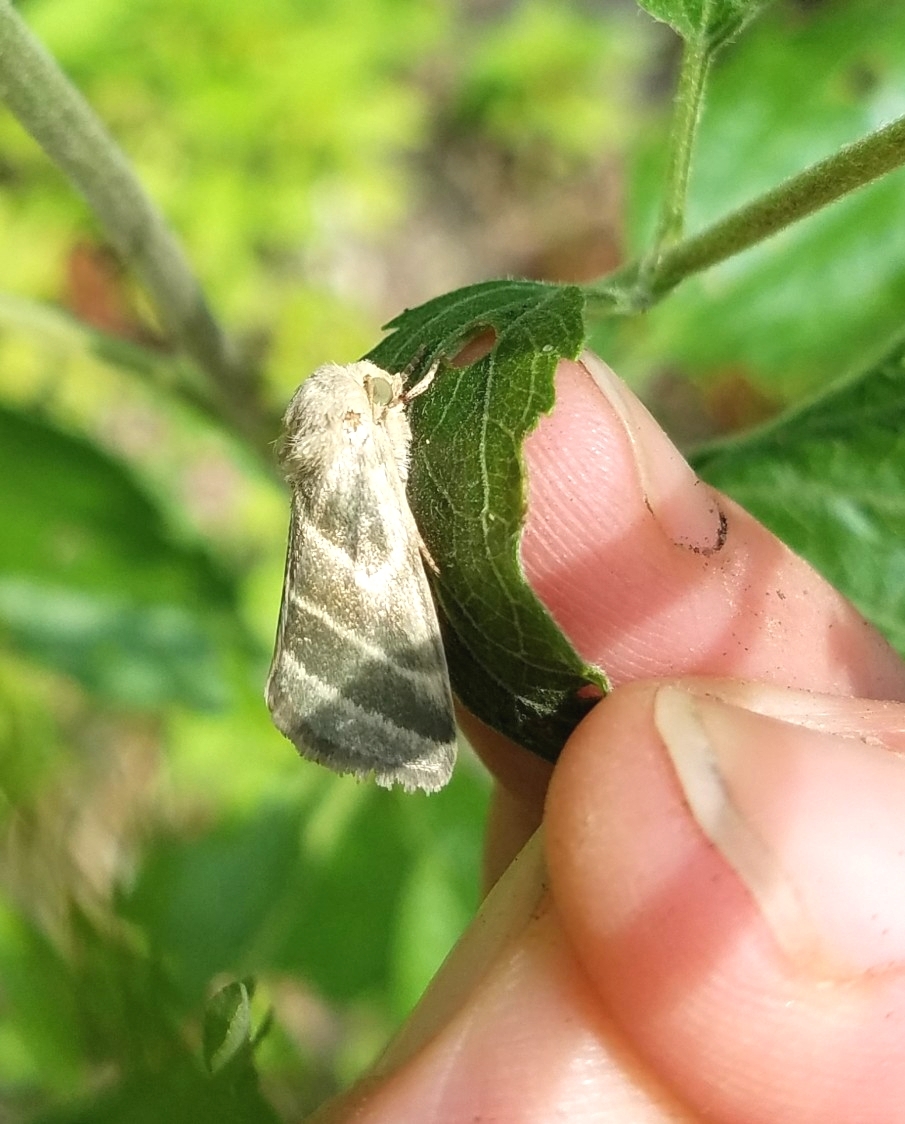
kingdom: Animalia
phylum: Arthropoda
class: Insecta
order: Lepidoptera
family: Noctuidae
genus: Schinia
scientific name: Schinia trifascia
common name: Three-lined flower moth
